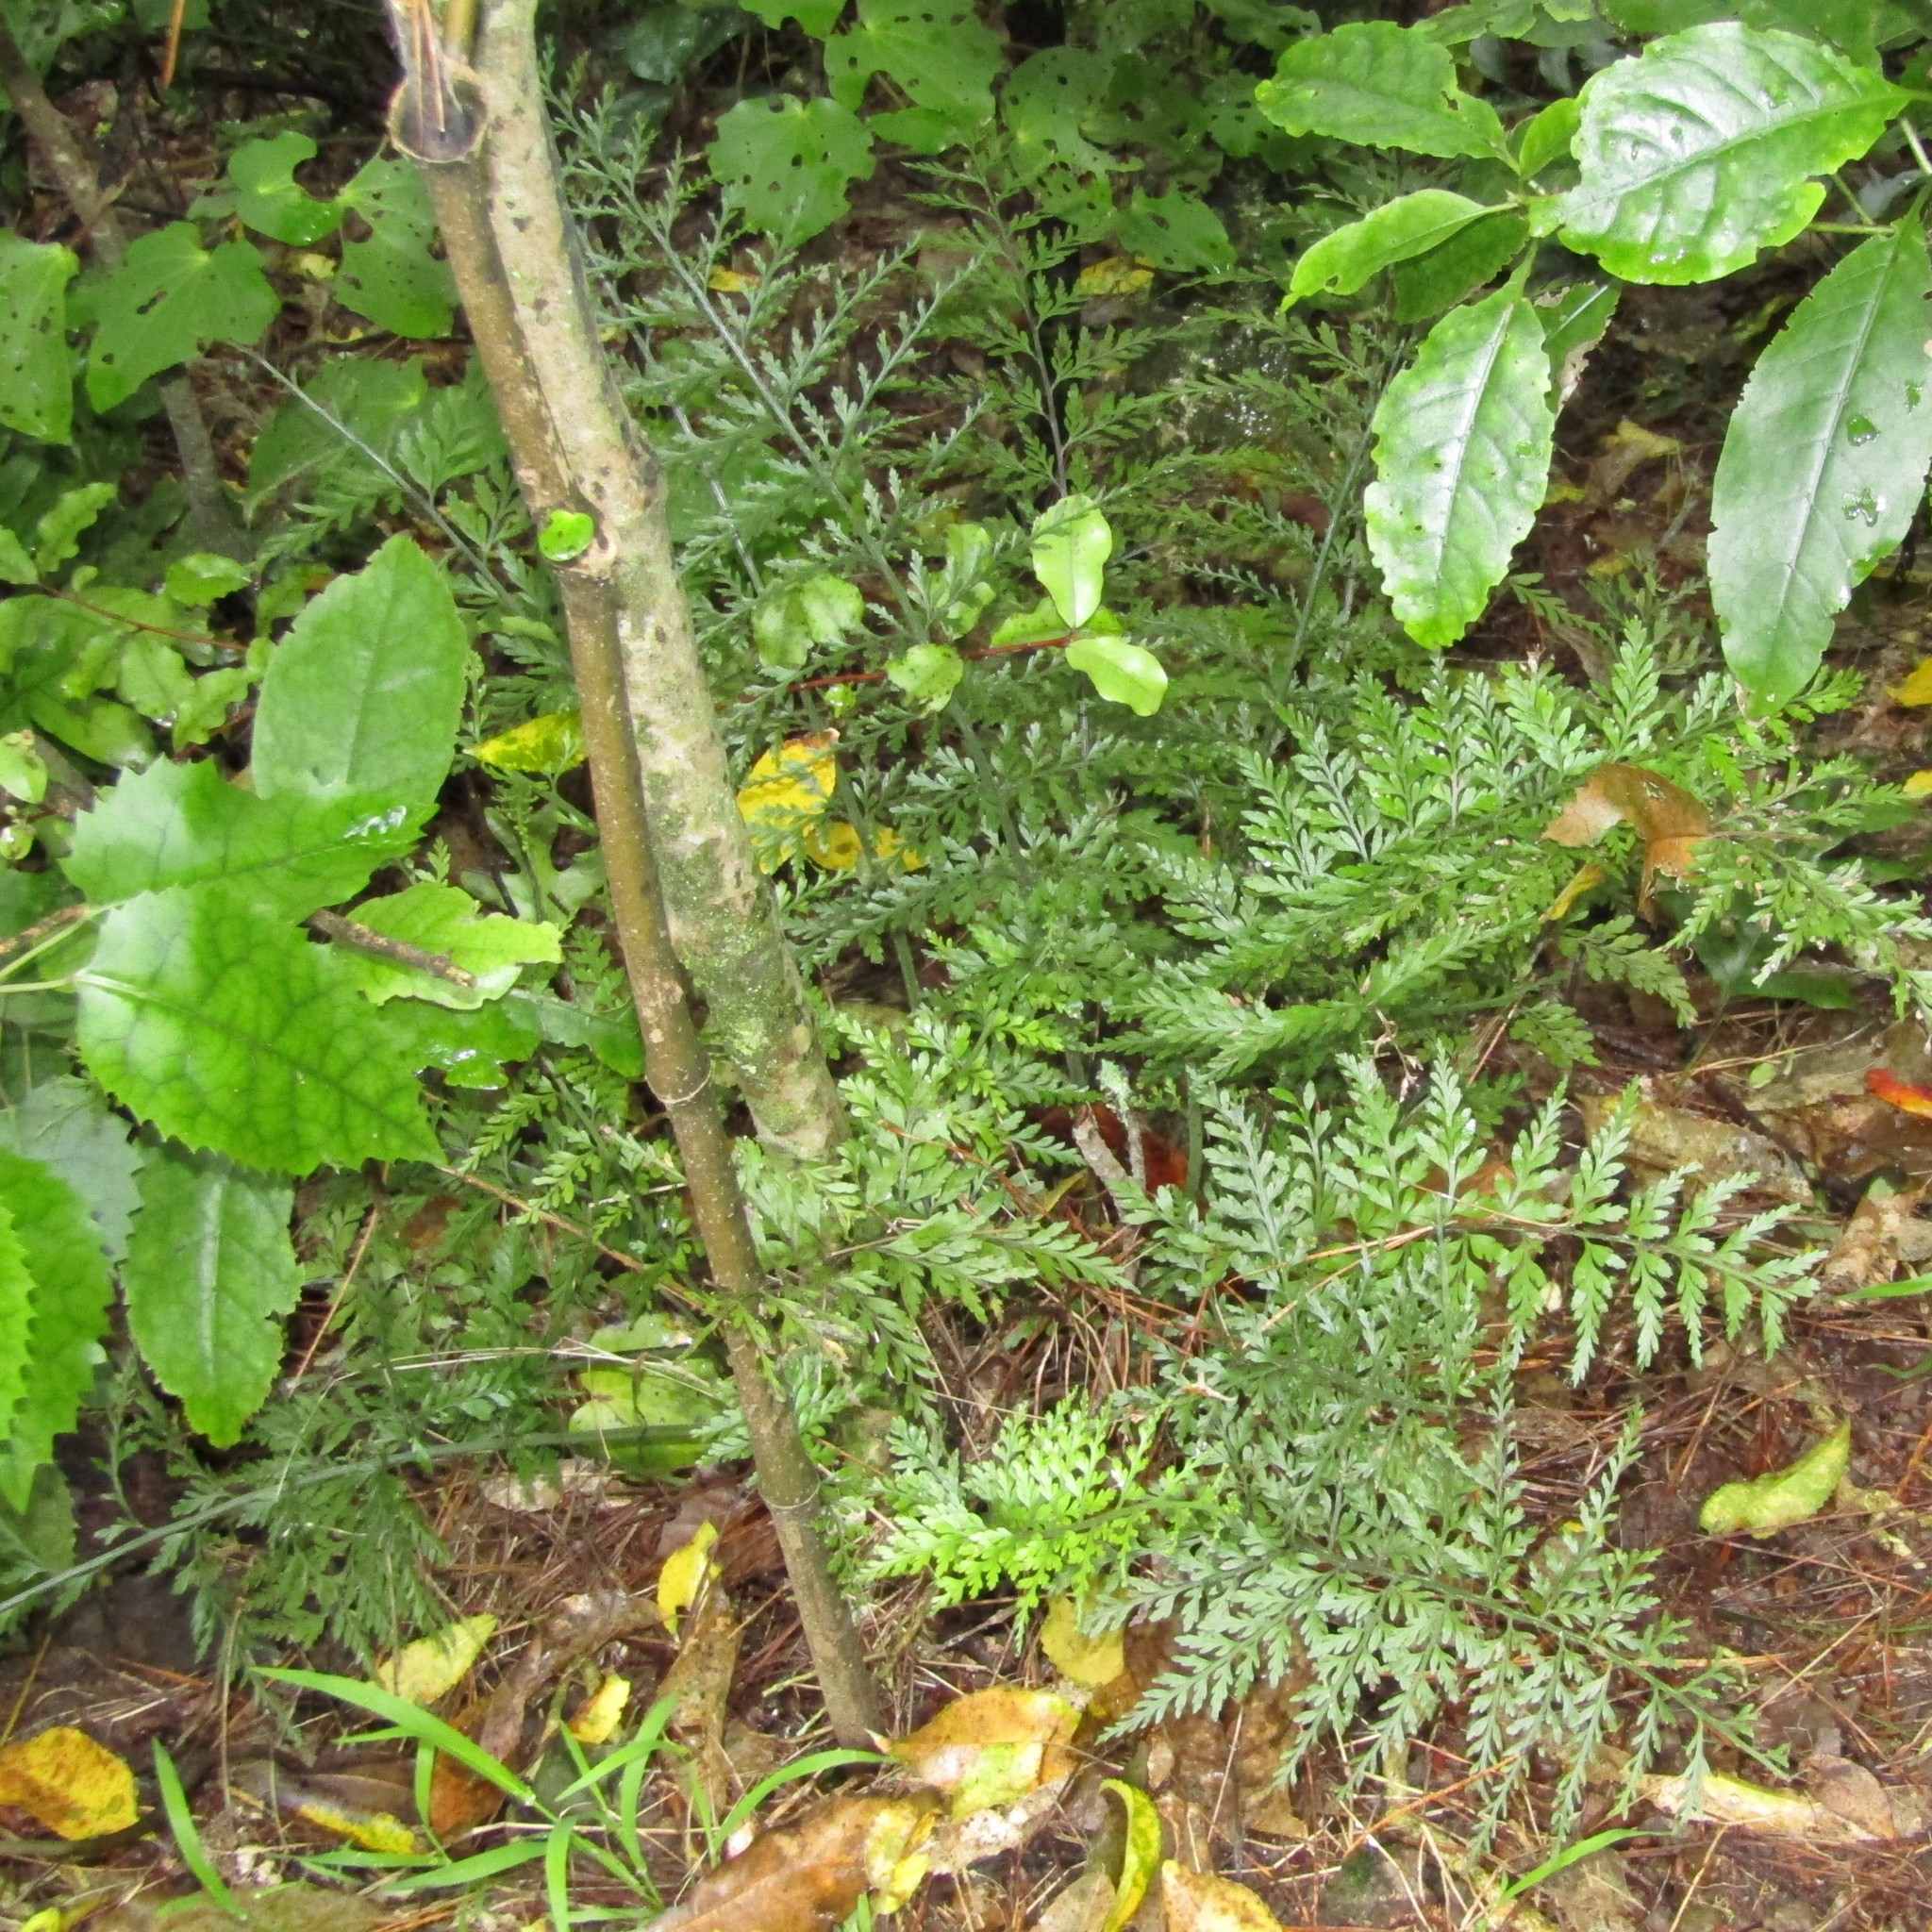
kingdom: Plantae
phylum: Tracheophyta
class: Polypodiopsida
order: Polypodiales
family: Aspleniaceae
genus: Asplenium
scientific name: Asplenium
